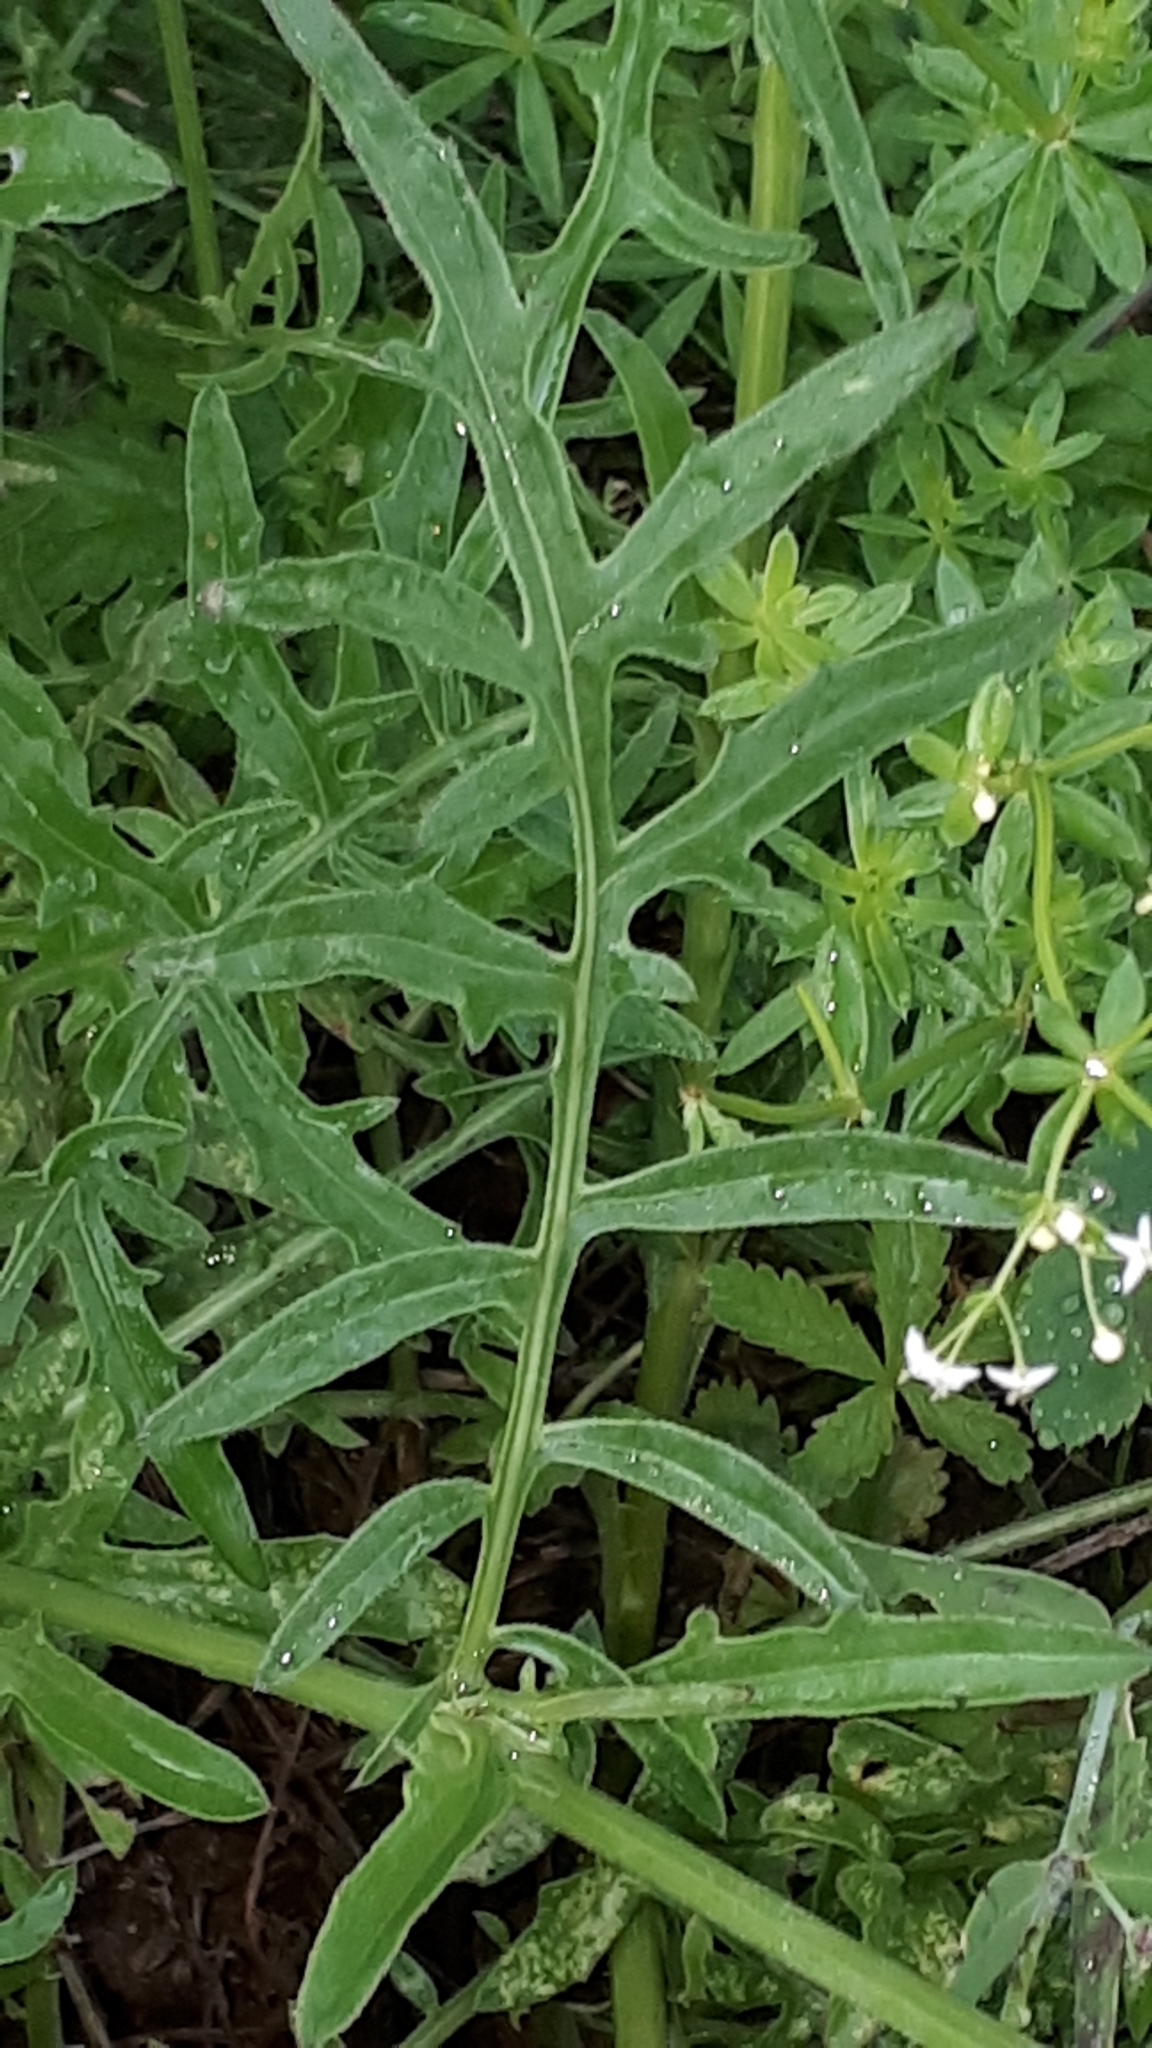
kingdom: Plantae
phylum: Tracheophyta
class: Magnoliopsida
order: Asterales
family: Asteraceae
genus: Centaurea
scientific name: Centaurea scabiosa
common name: Greater knapweed
